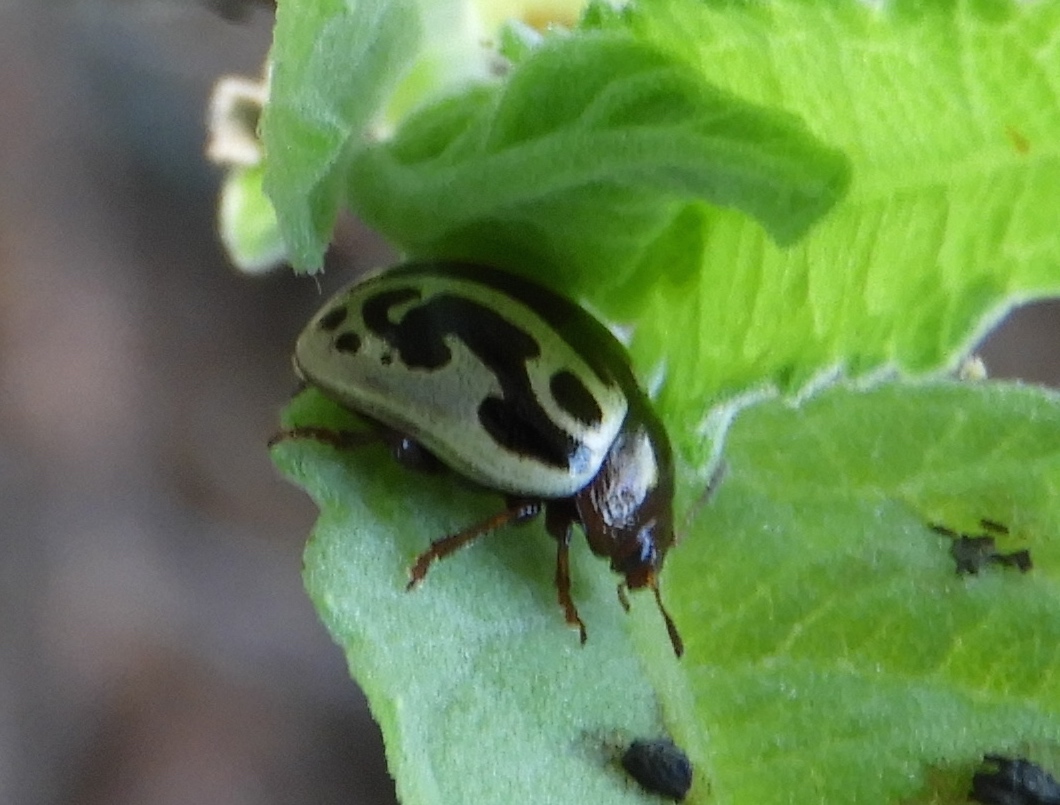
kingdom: Animalia
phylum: Arthropoda
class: Insecta
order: Coleoptera
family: Chrysomelidae
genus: Zygogramma
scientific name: Zygogramma
